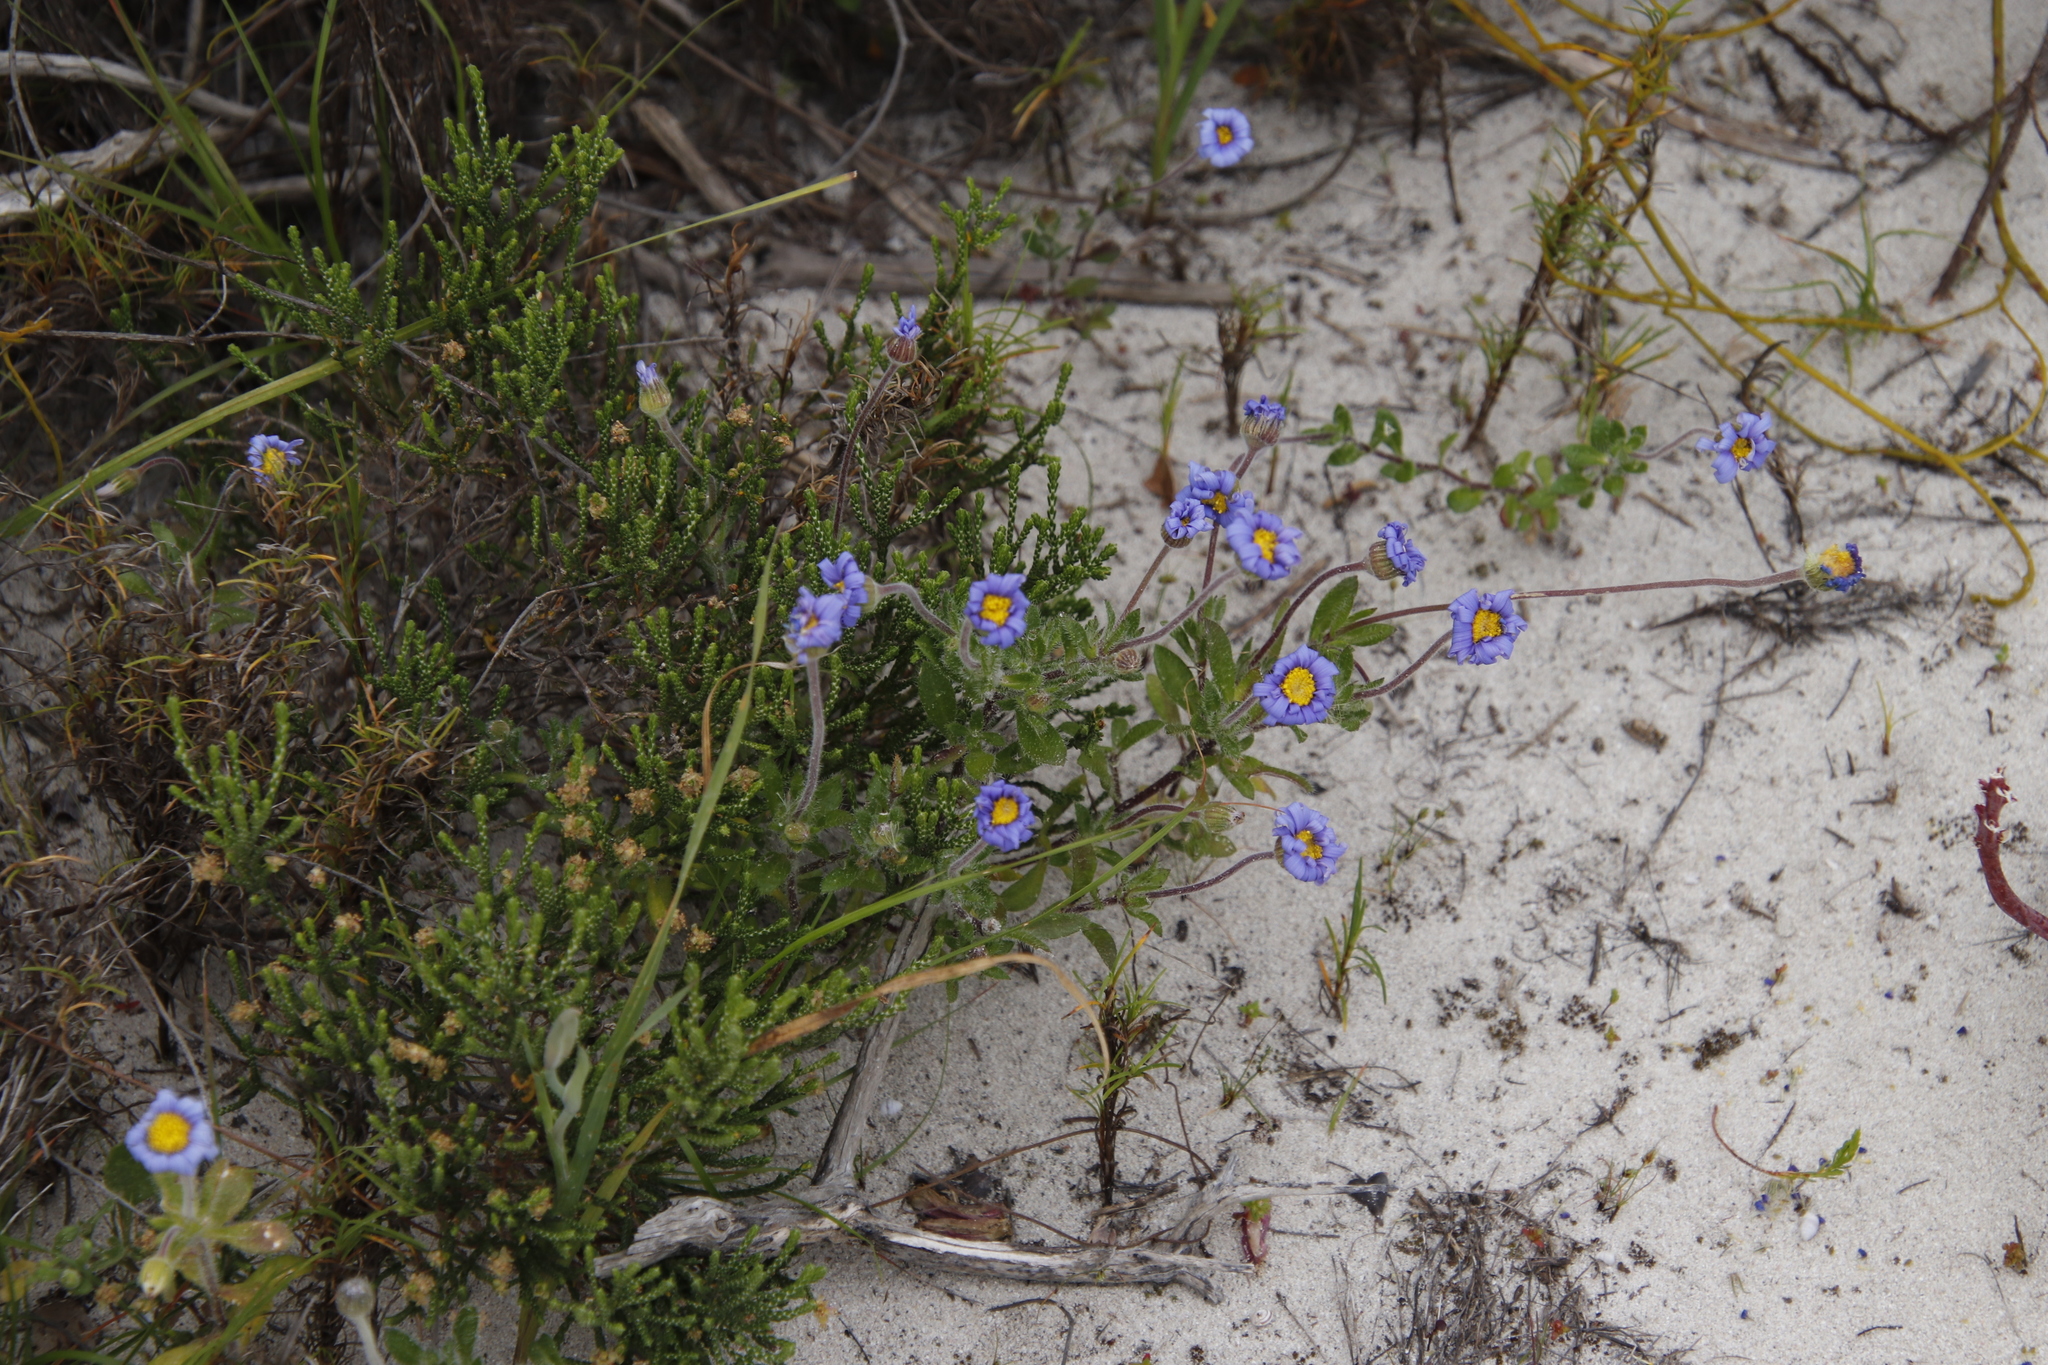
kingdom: Plantae
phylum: Tracheophyta
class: Magnoliopsida
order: Asterales
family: Asteraceae
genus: Felicia
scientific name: Felicia amoena
